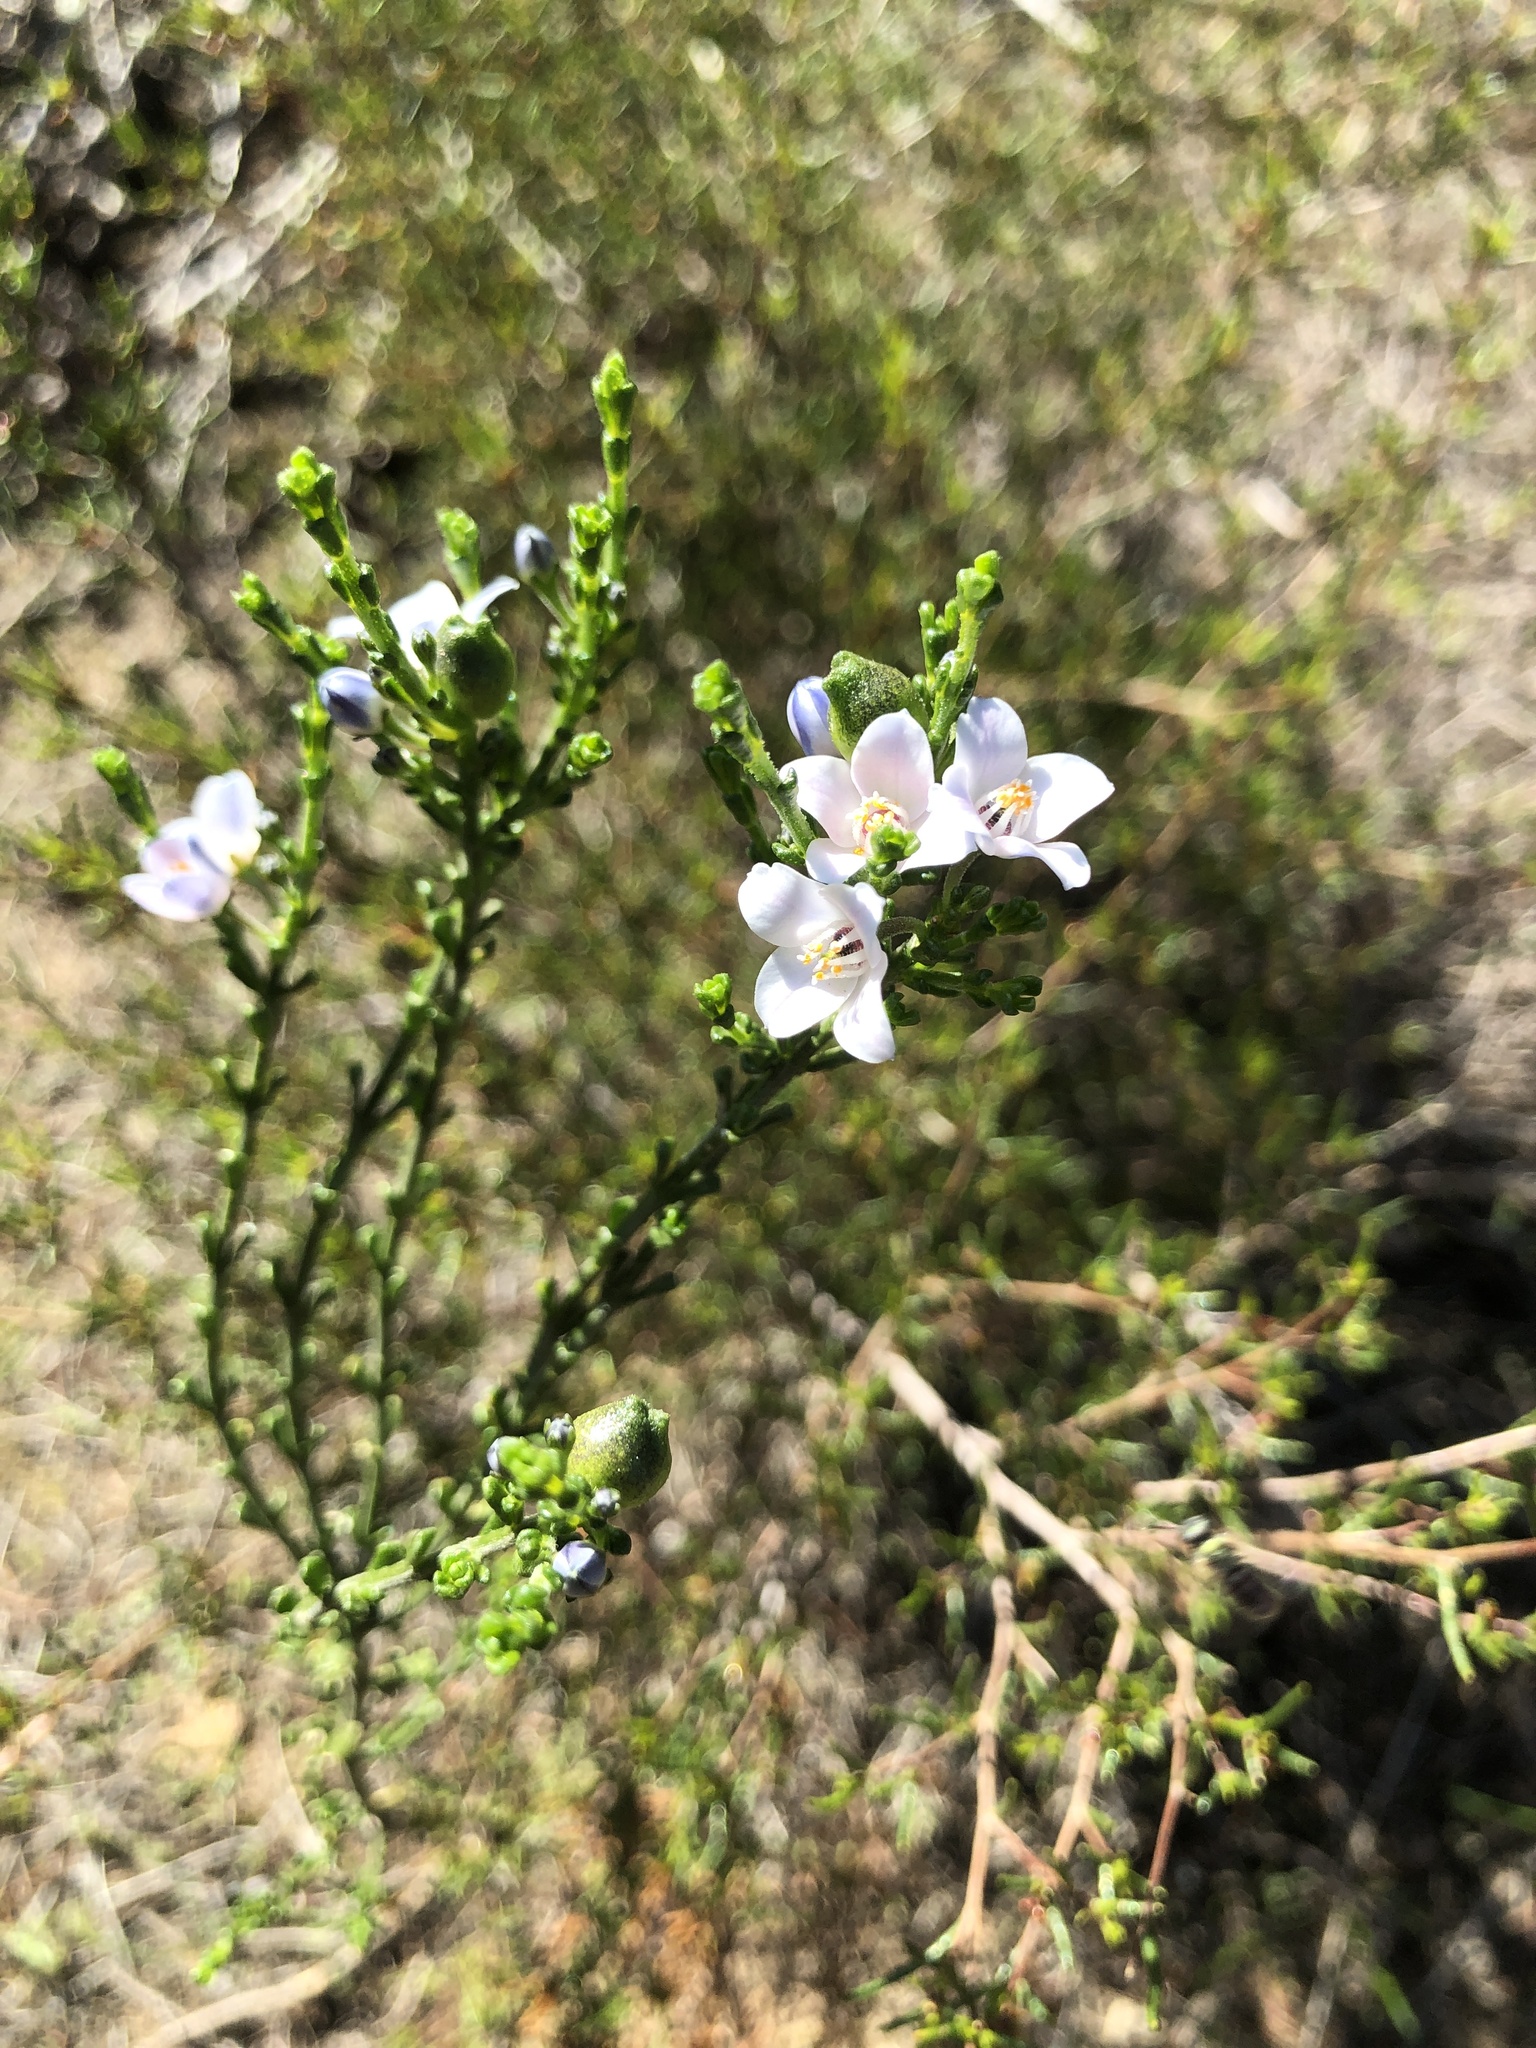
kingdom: Plantae
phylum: Tracheophyta
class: Magnoliopsida
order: Sapindales
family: Rutaceae
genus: Cyanothamnus
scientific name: Cyanothamnus coerulescens
